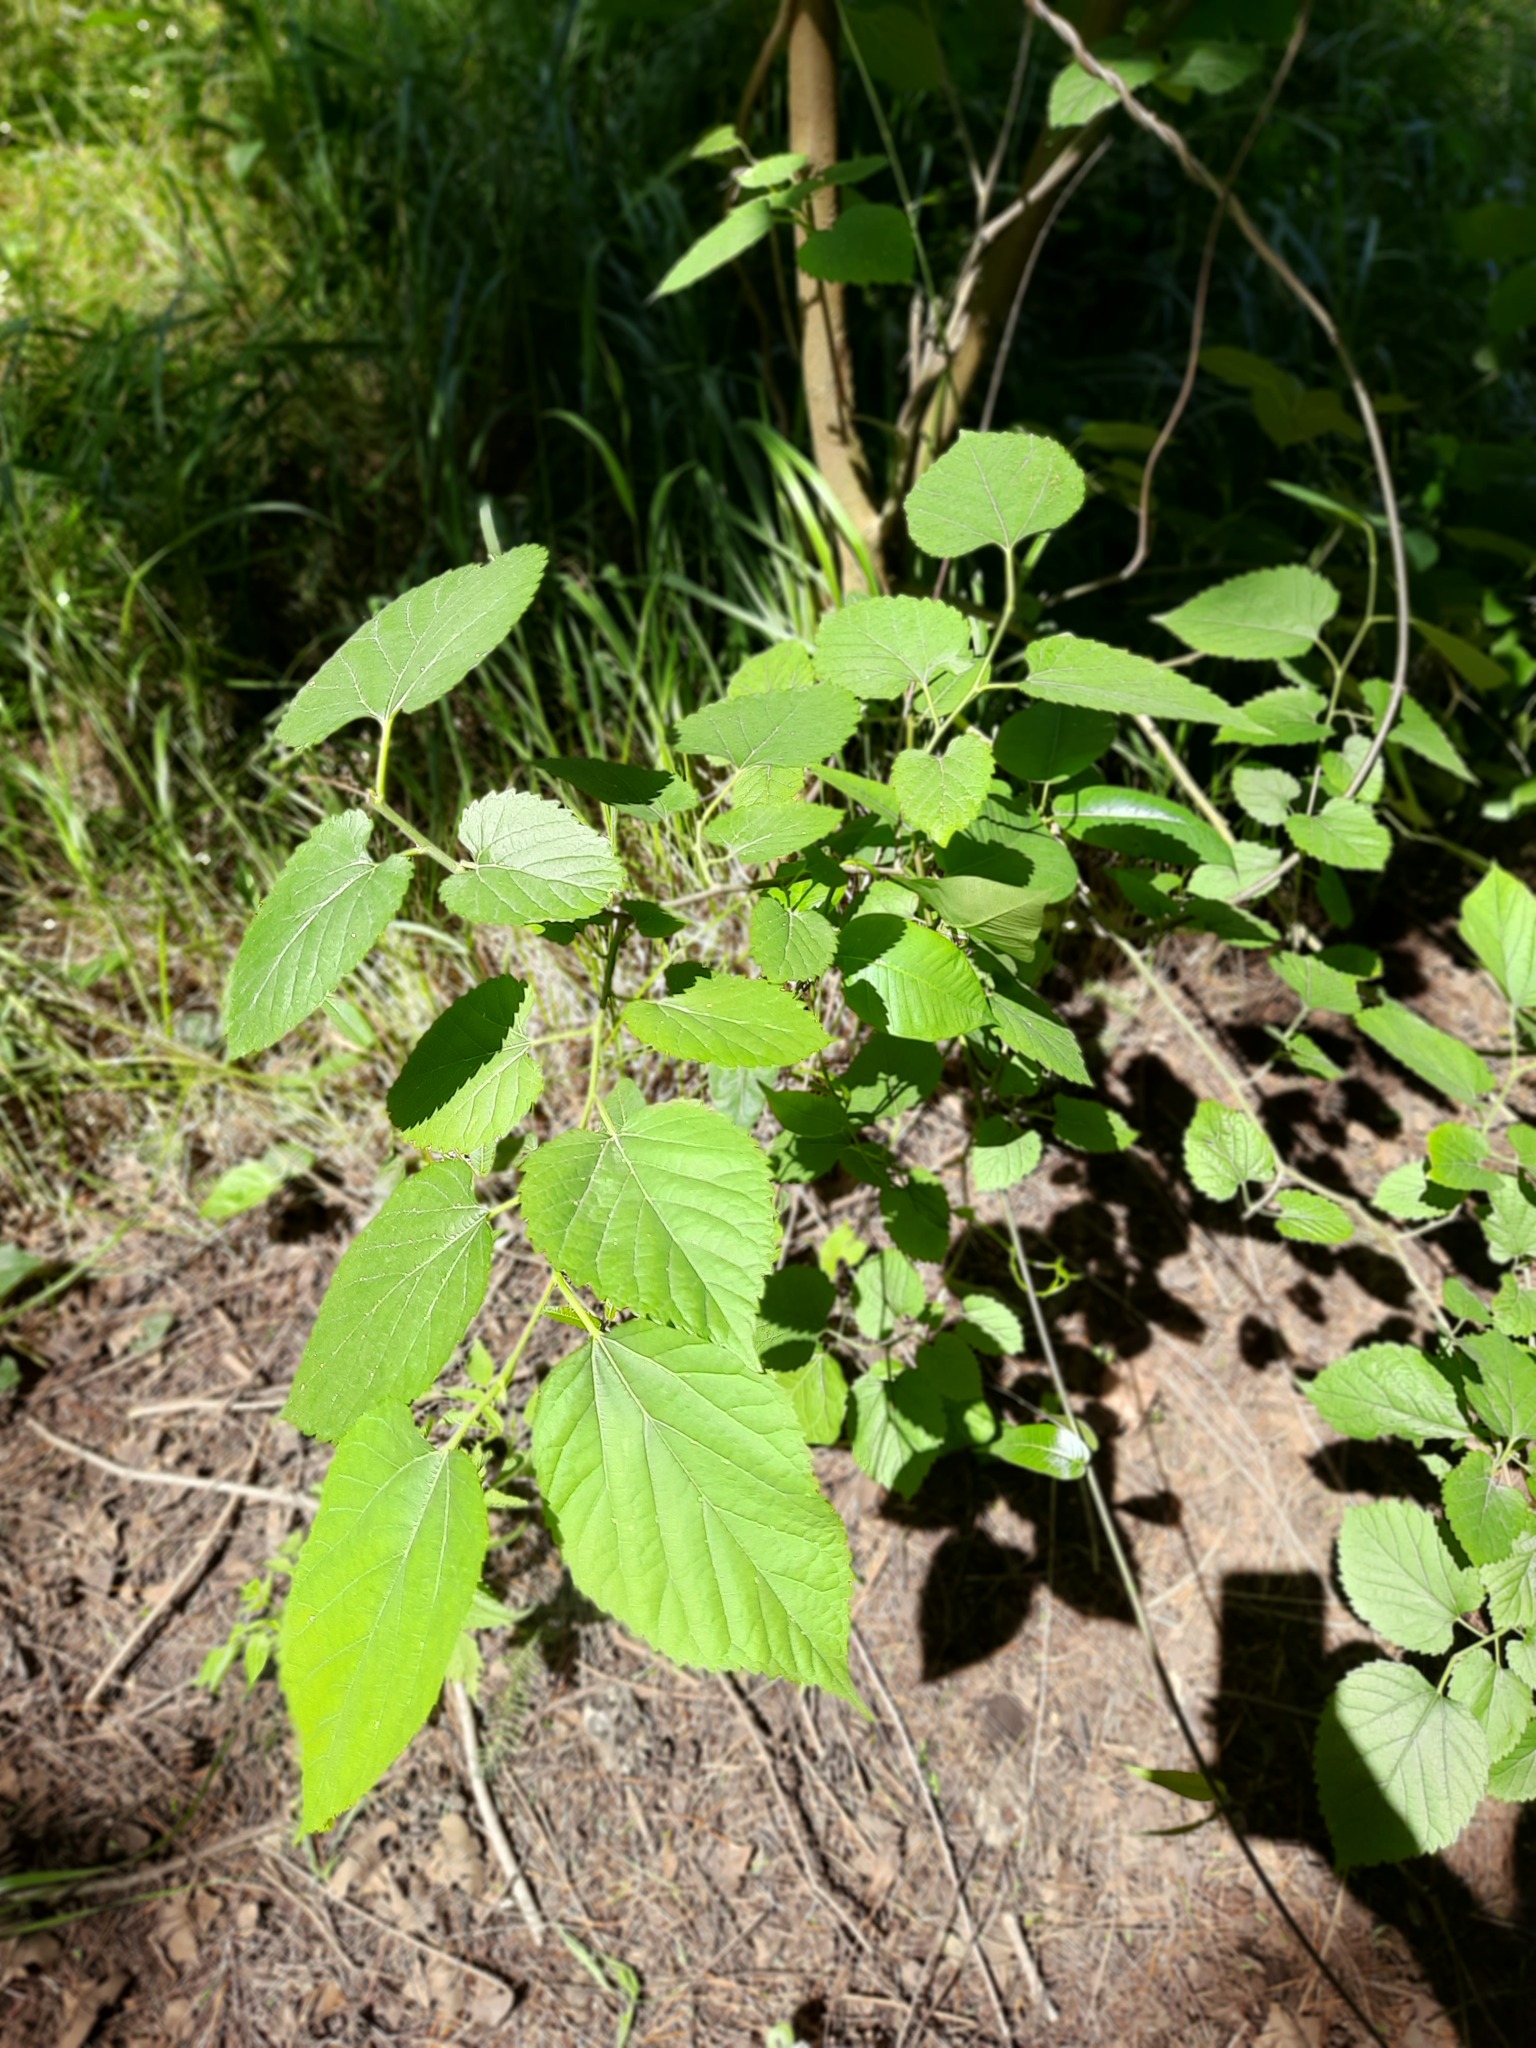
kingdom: Plantae
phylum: Tracheophyta
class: Magnoliopsida
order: Rosales
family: Moraceae
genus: Morus
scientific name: Morus alba
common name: White mulberry
